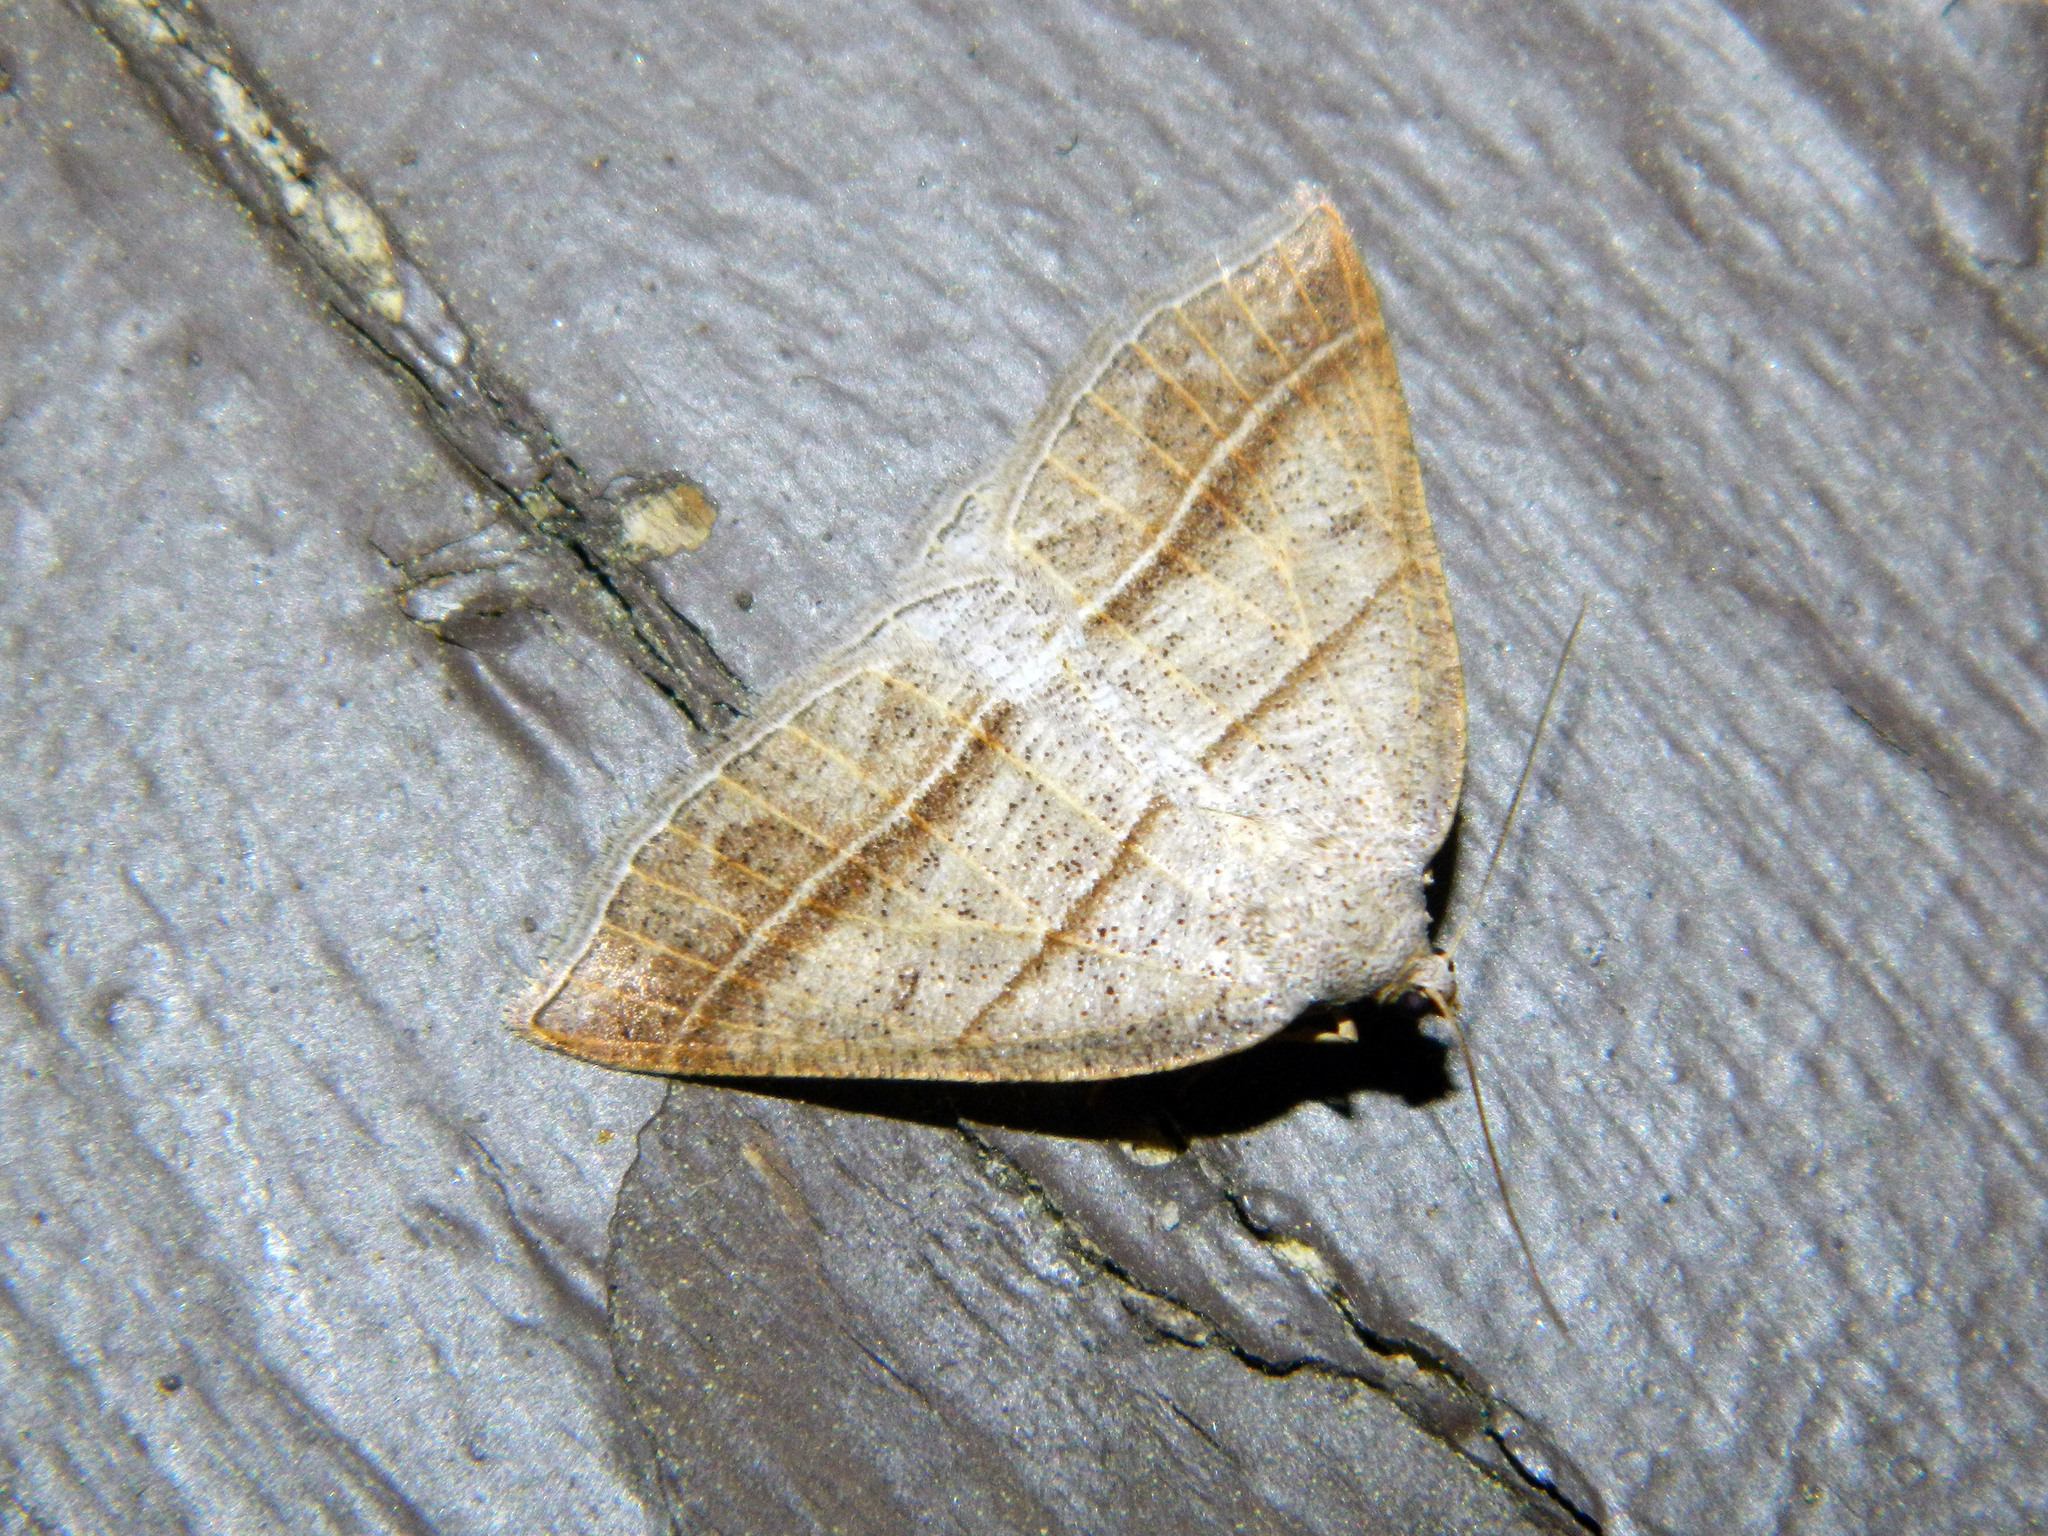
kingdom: Animalia
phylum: Arthropoda
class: Insecta
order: Lepidoptera
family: Pterophoridae
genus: Pterophorus
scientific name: Pterophorus Petrophora subaequaria
